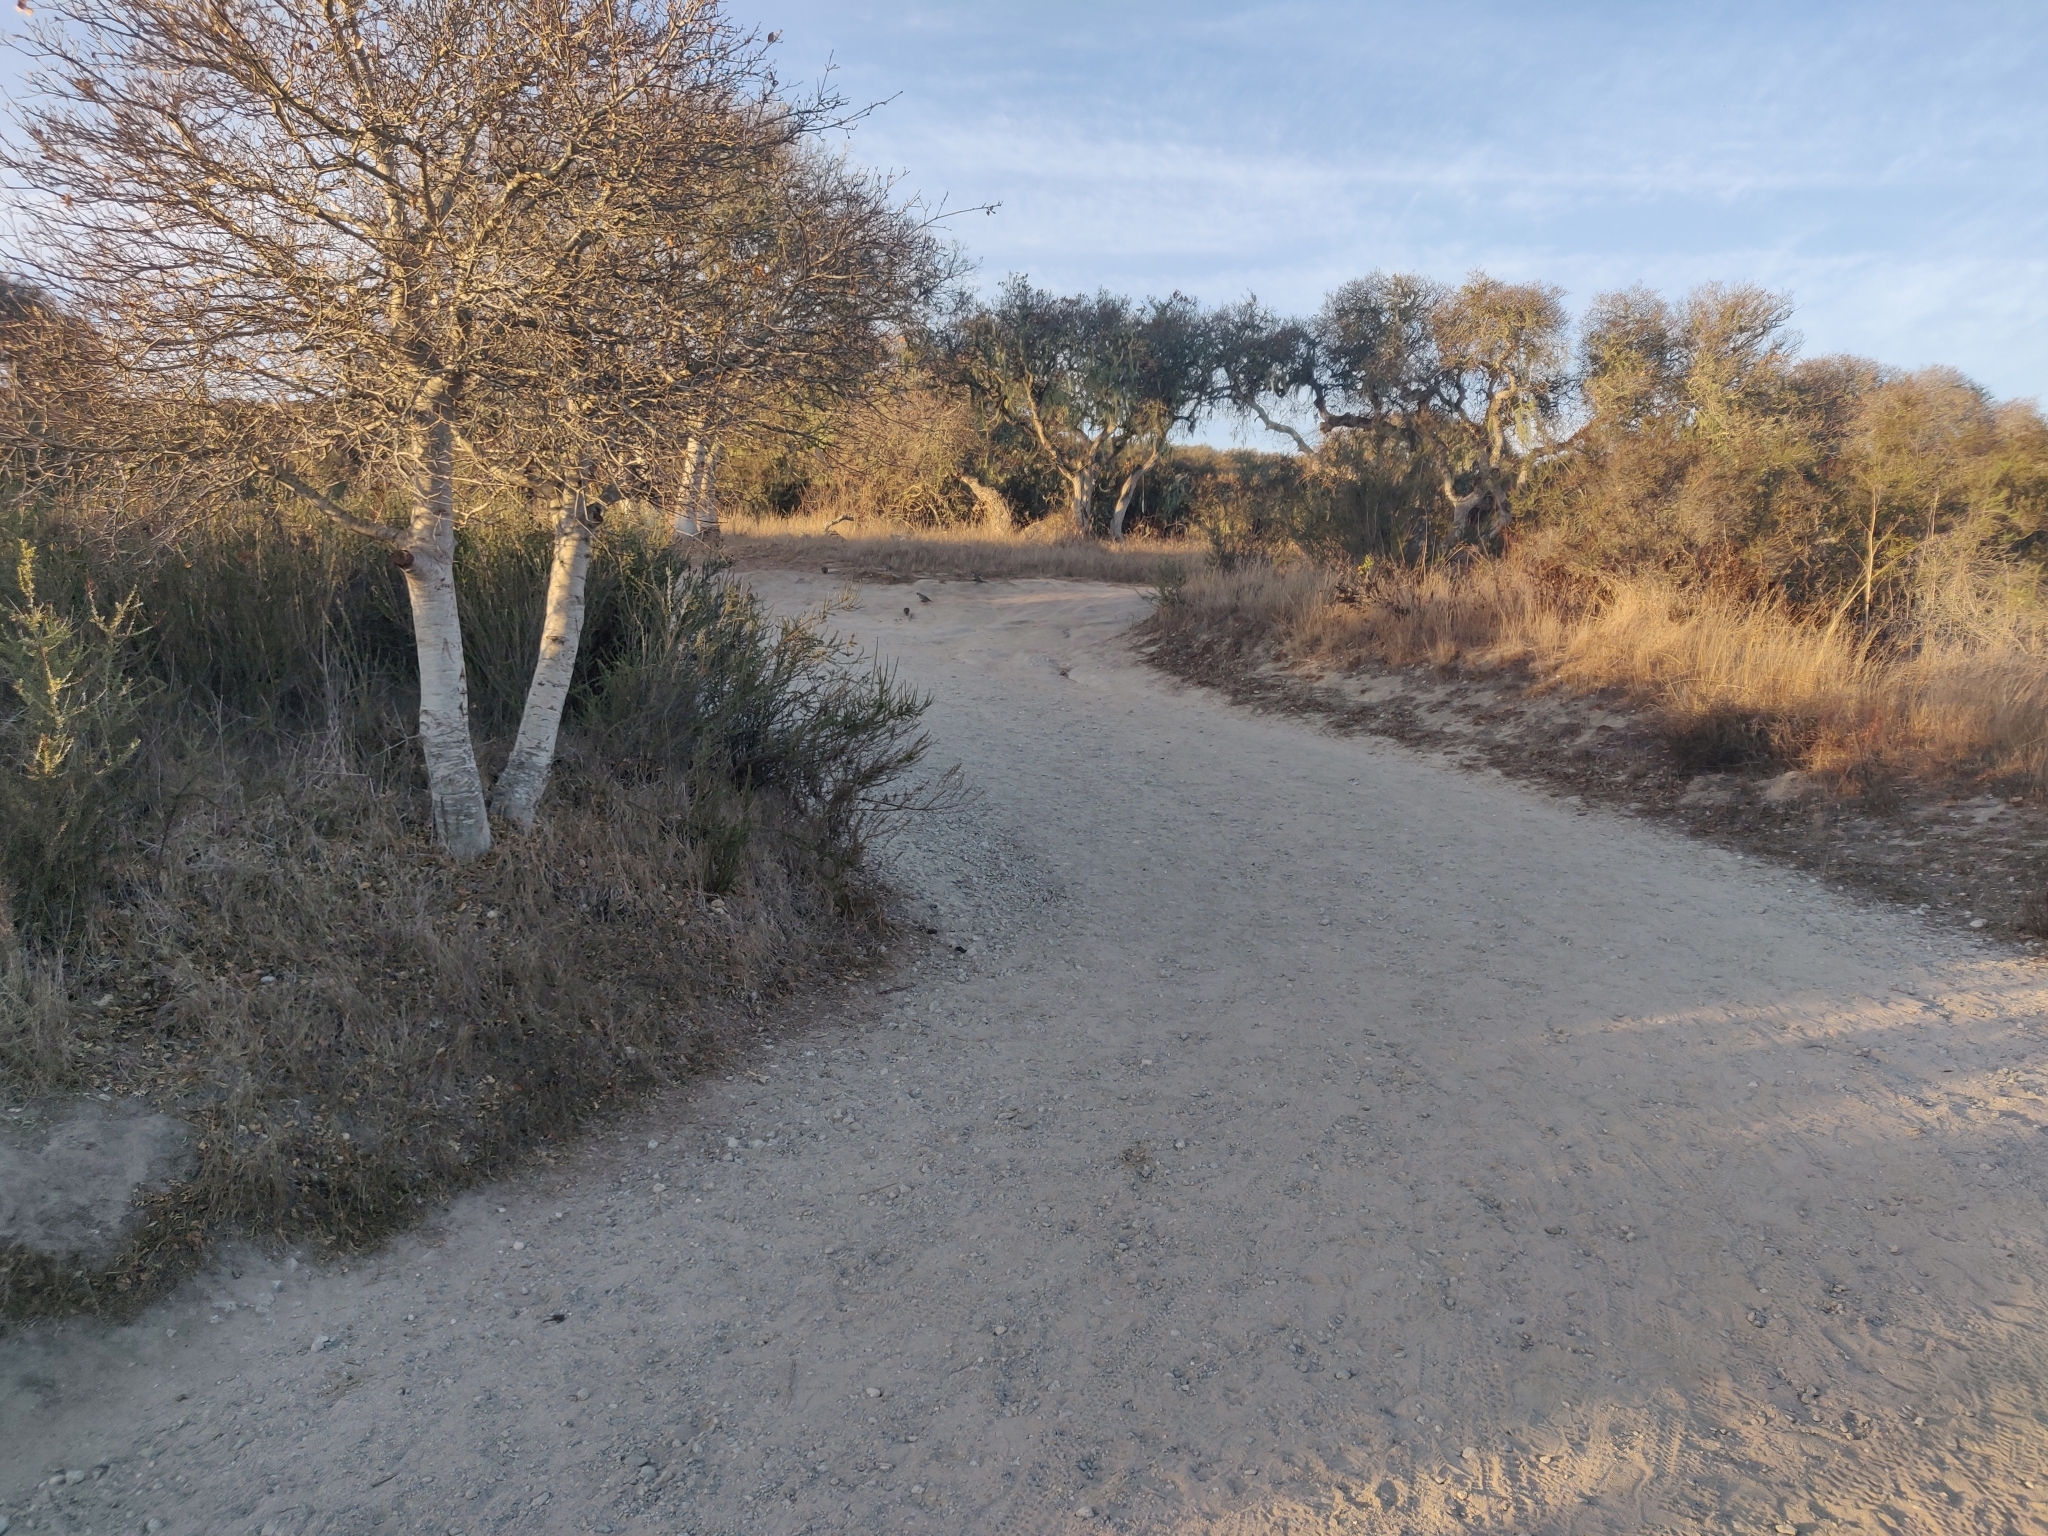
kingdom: Animalia
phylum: Chordata
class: Aves
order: Galliformes
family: Odontophoridae
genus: Callipepla
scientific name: Callipepla californica
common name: California quail
